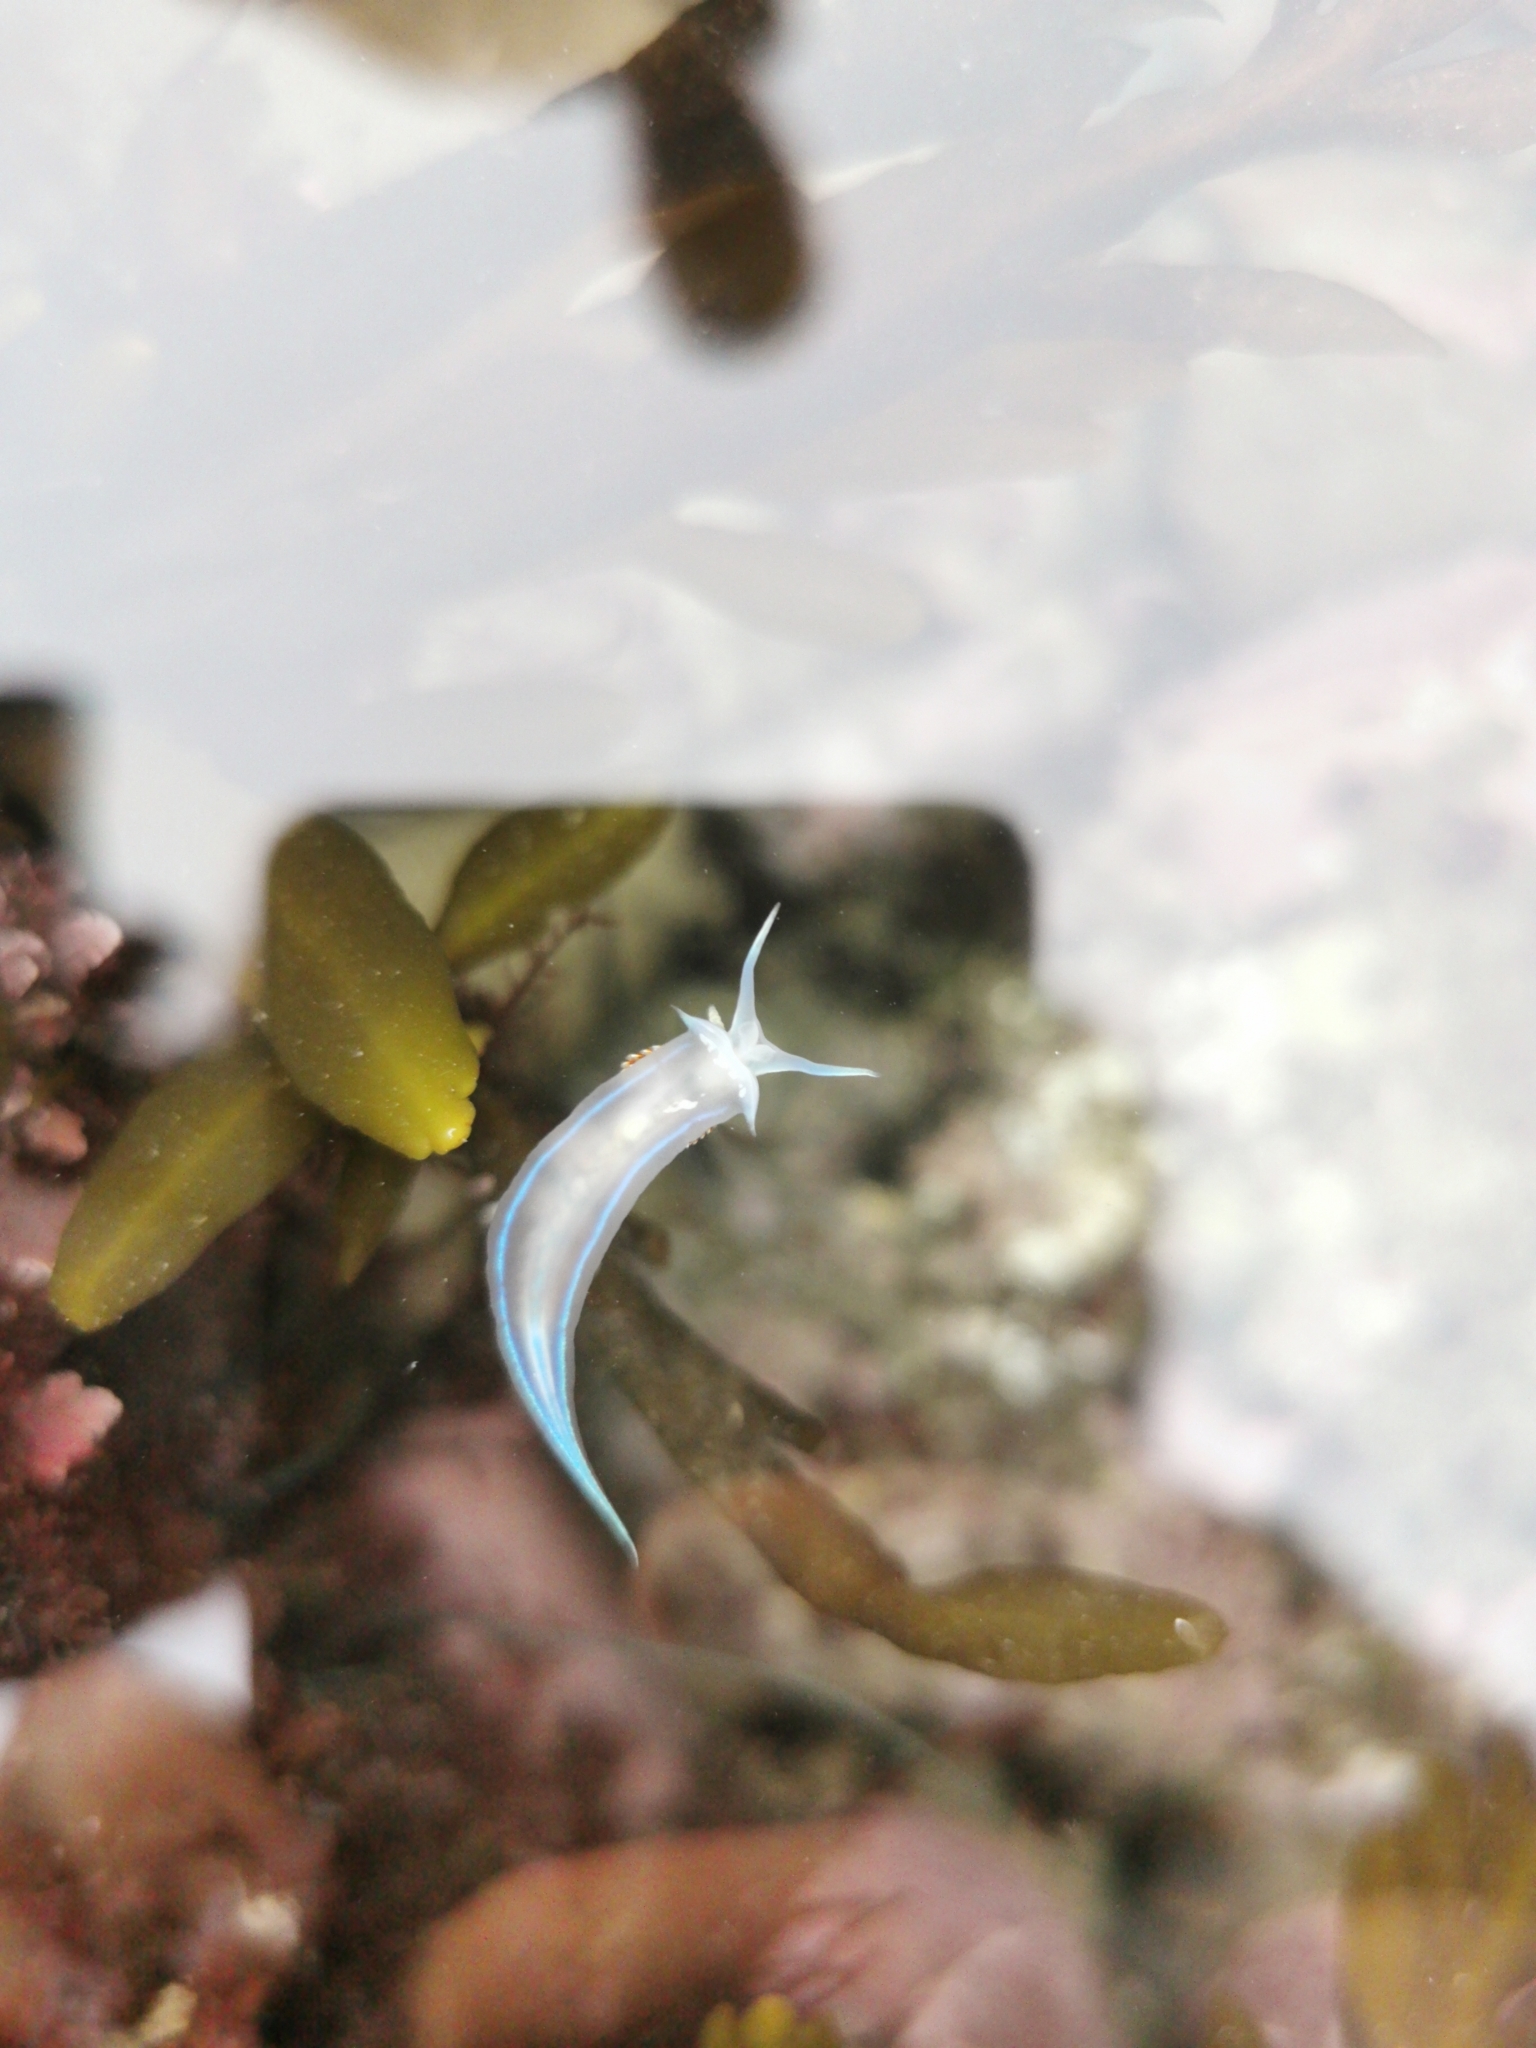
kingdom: Animalia
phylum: Mollusca
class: Gastropoda
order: Nudibranchia
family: Myrrhinidae
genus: Hermissenda
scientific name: Hermissenda opalescens
